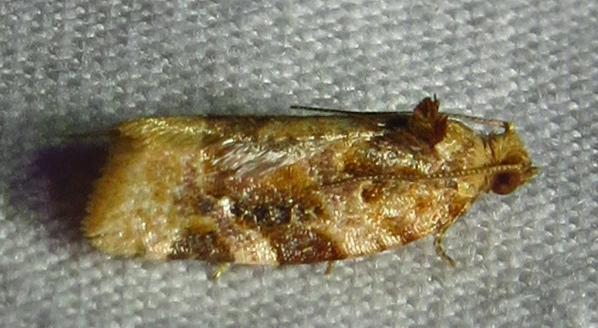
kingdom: Animalia
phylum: Arthropoda
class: Insecta
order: Lepidoptera
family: Tortricidae
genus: Argyrotaenia
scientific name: Argyrotaenia velutinana
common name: Red-banded leafroller moth
